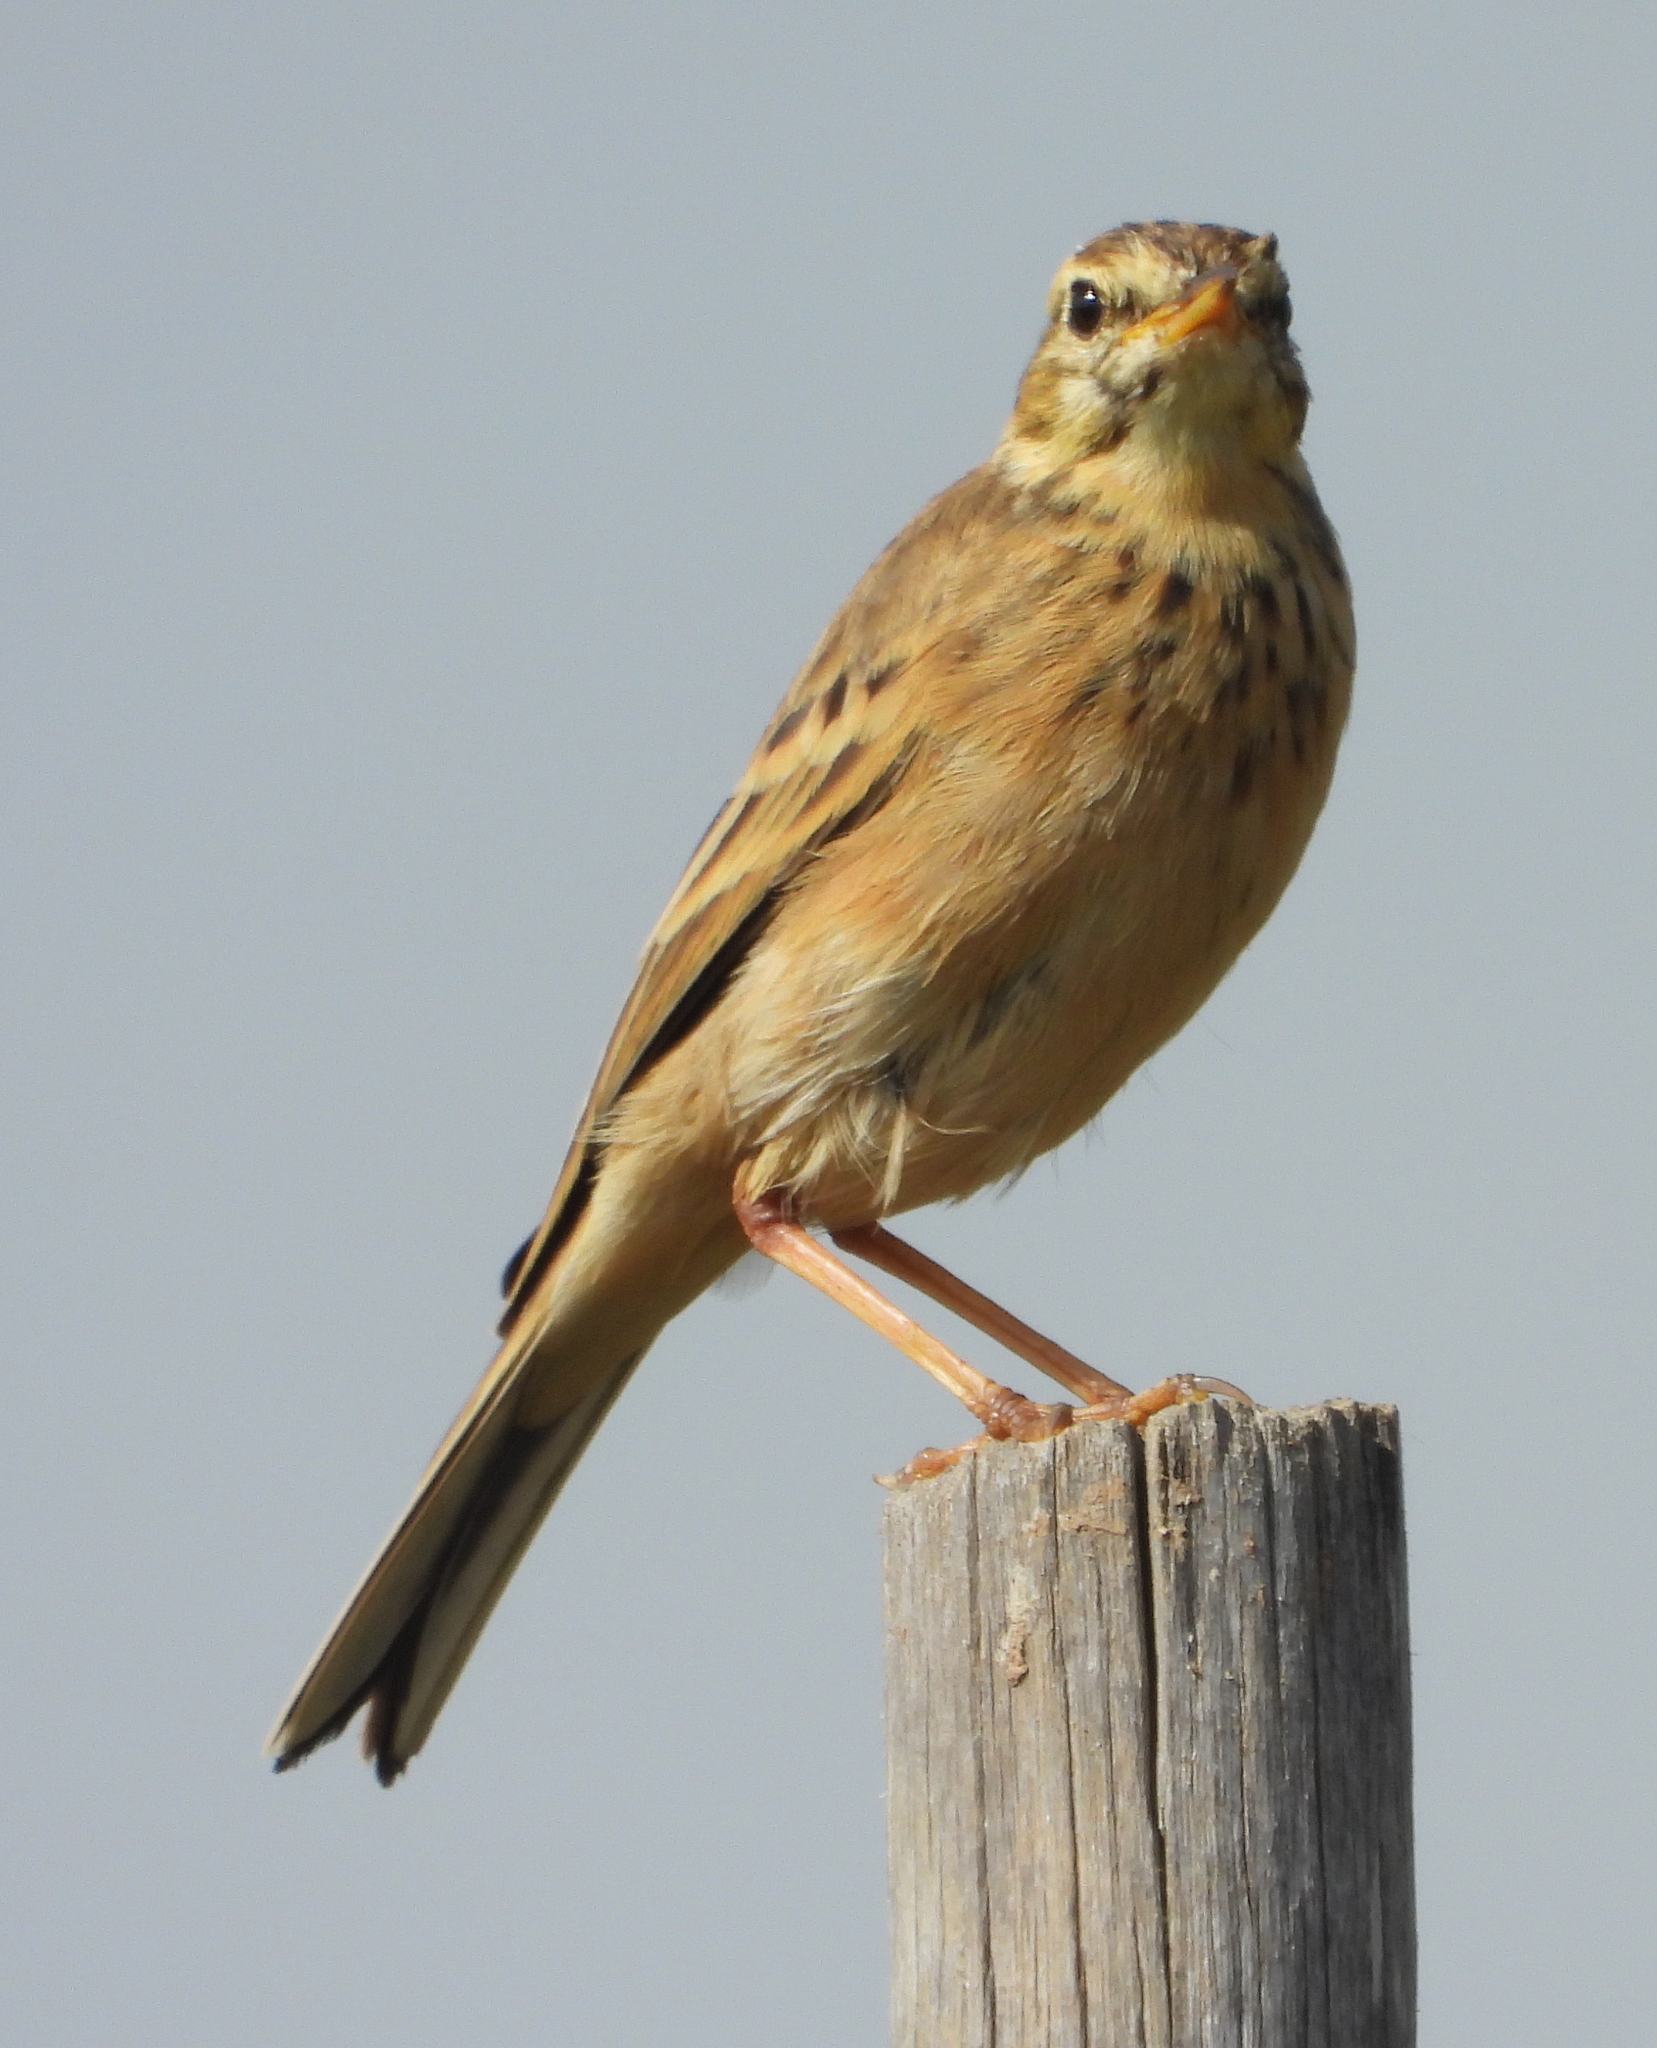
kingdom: Animalia
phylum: Chordata
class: Aves
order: Passeriformes
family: Motacillidae
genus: Anthus
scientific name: Anthus cinnamomeus
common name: African pipit
